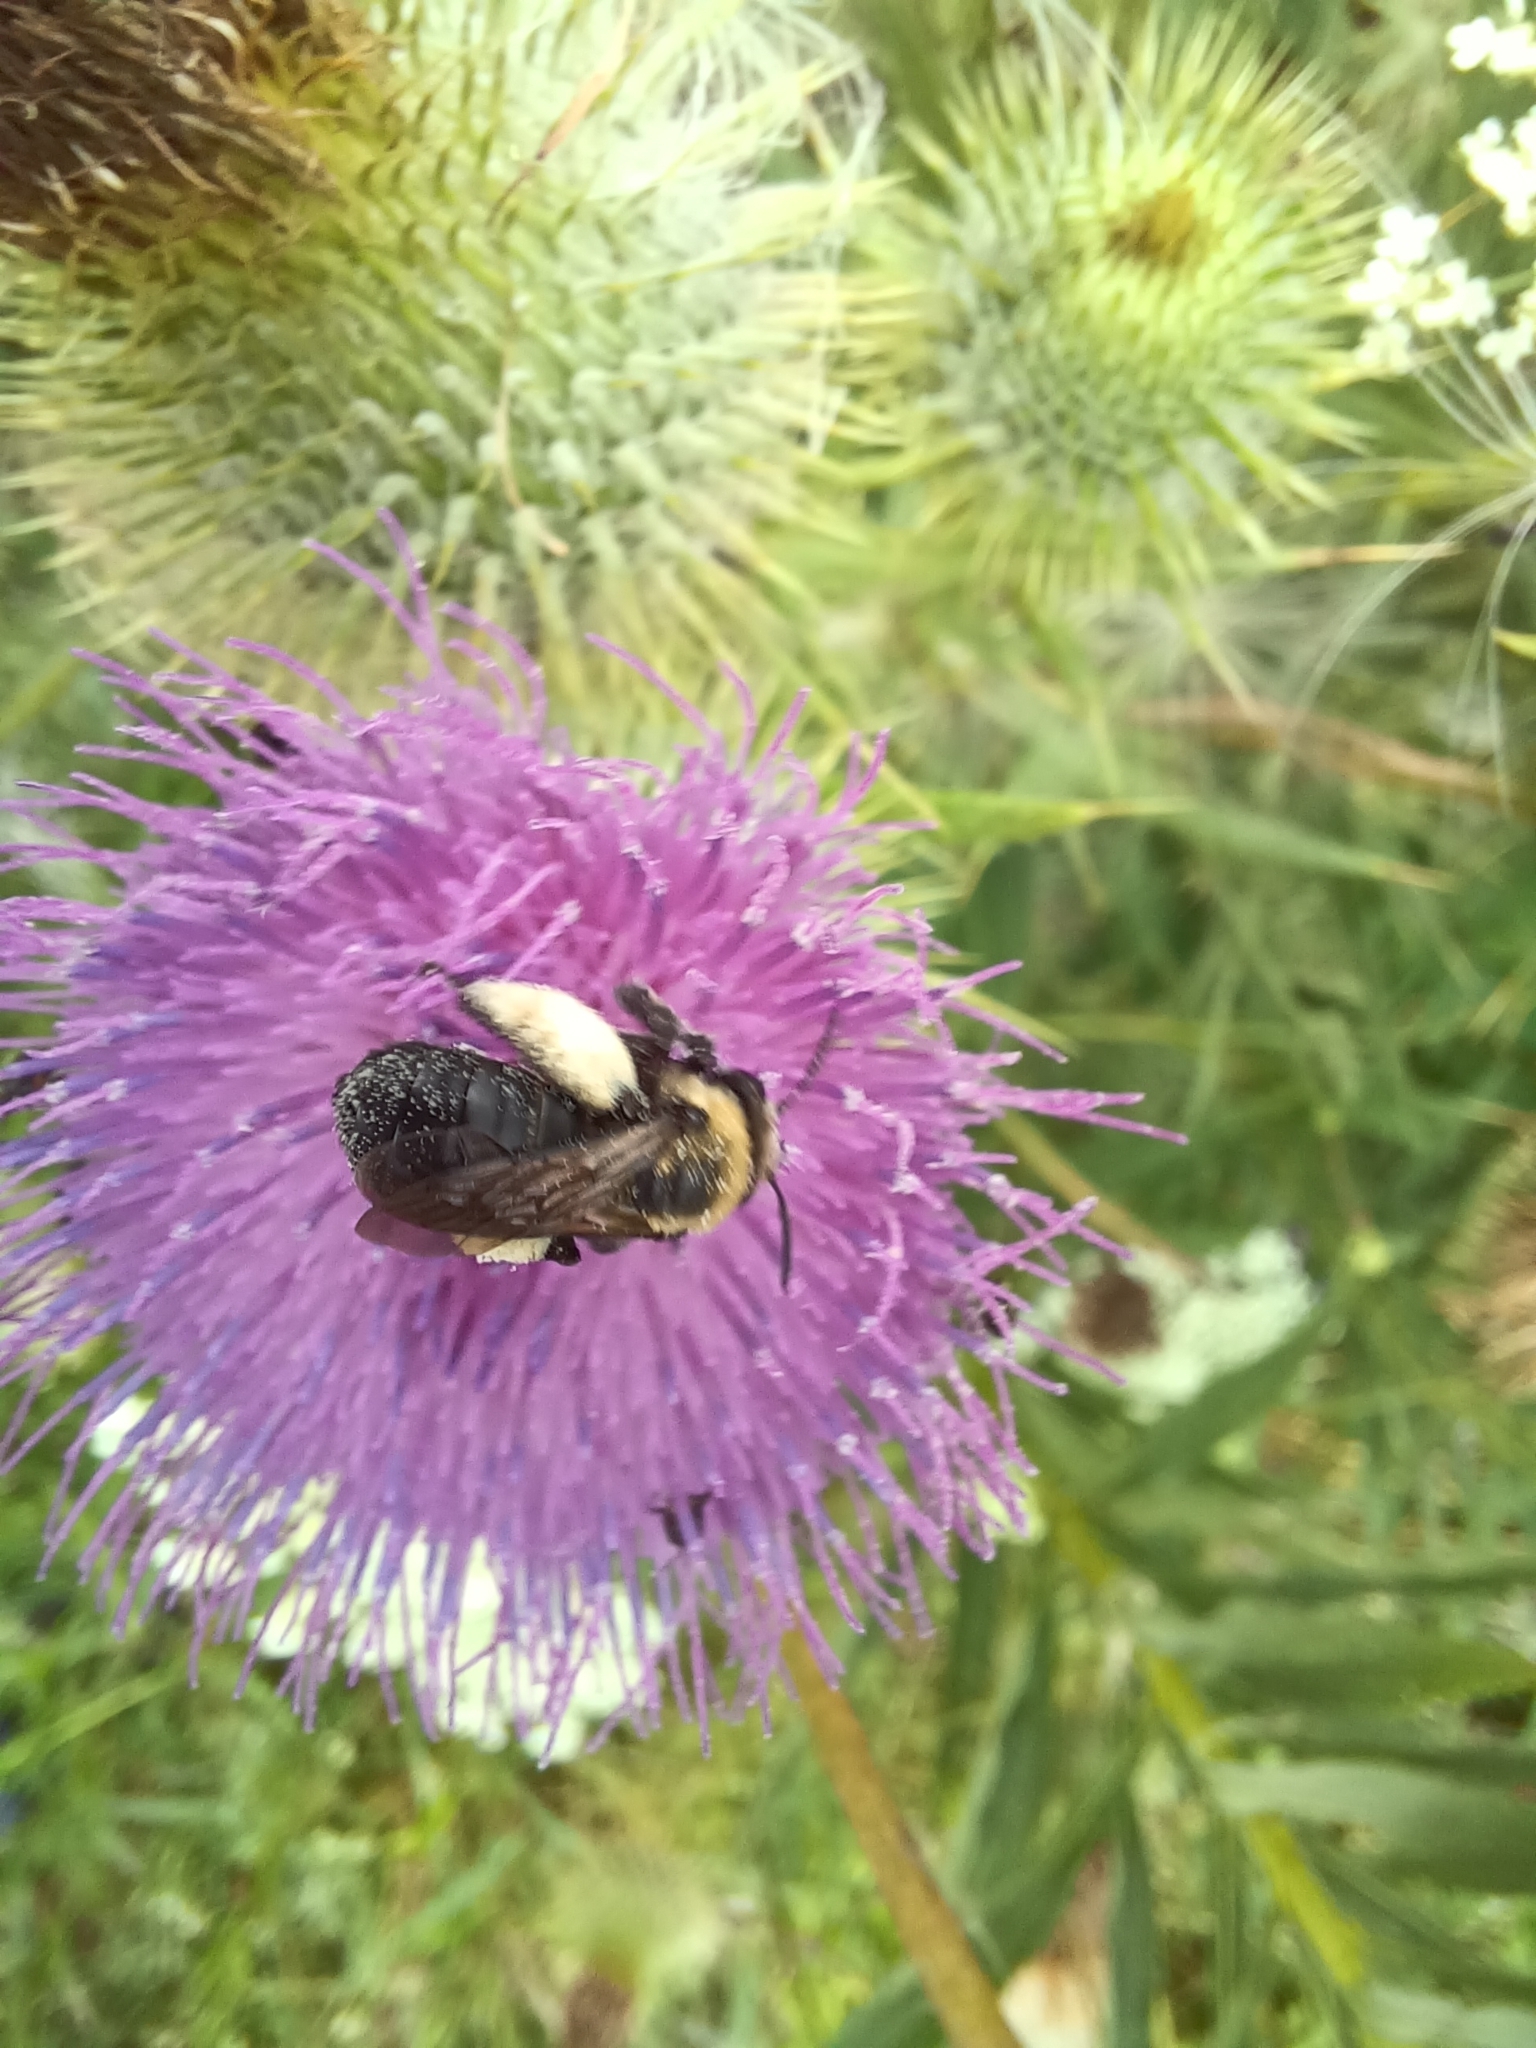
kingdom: Animalia
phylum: Arthropoda
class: Insecta
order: Hymenoptera
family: Apidae
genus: Melissodes
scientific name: Melissodes desponsus
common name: Thistle long-horned bee
